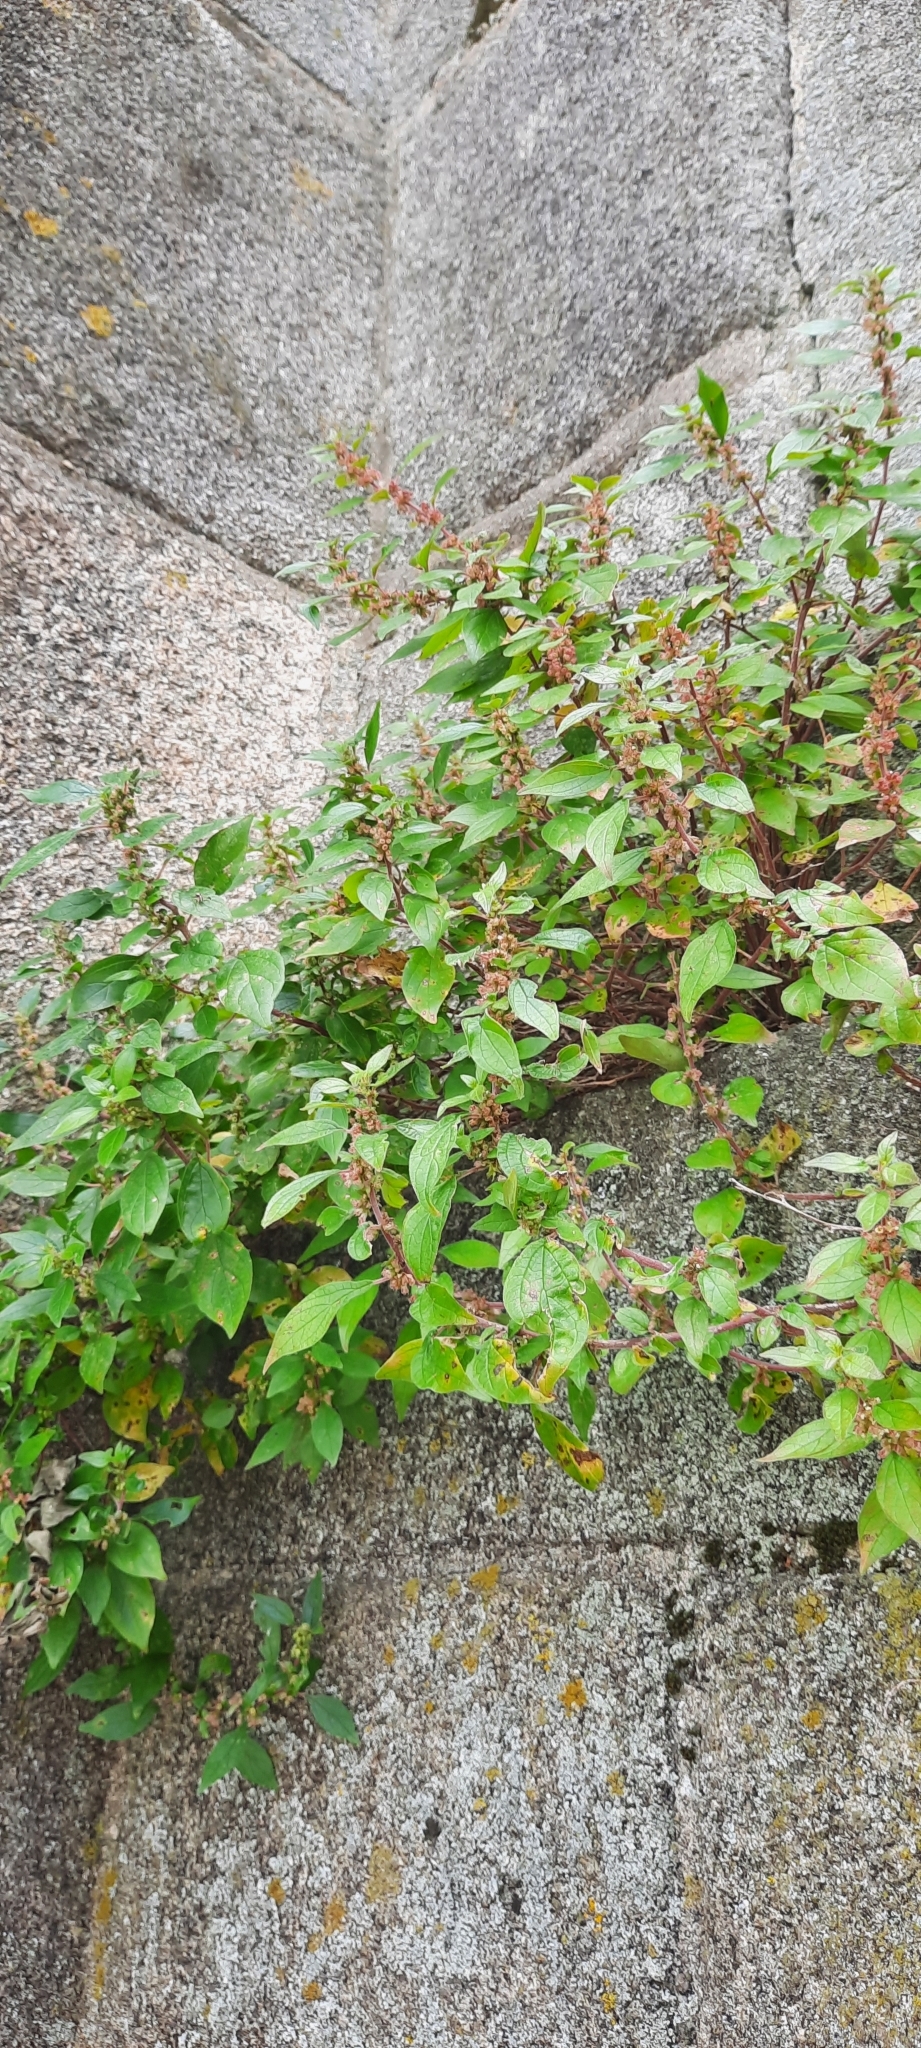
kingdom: Plantae
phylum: Tracheophyta
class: Magnoliopsida
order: Rosales
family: Urticaceae
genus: Parietaria
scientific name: Parietaria judaica
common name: Pellitory-of-the-wall
